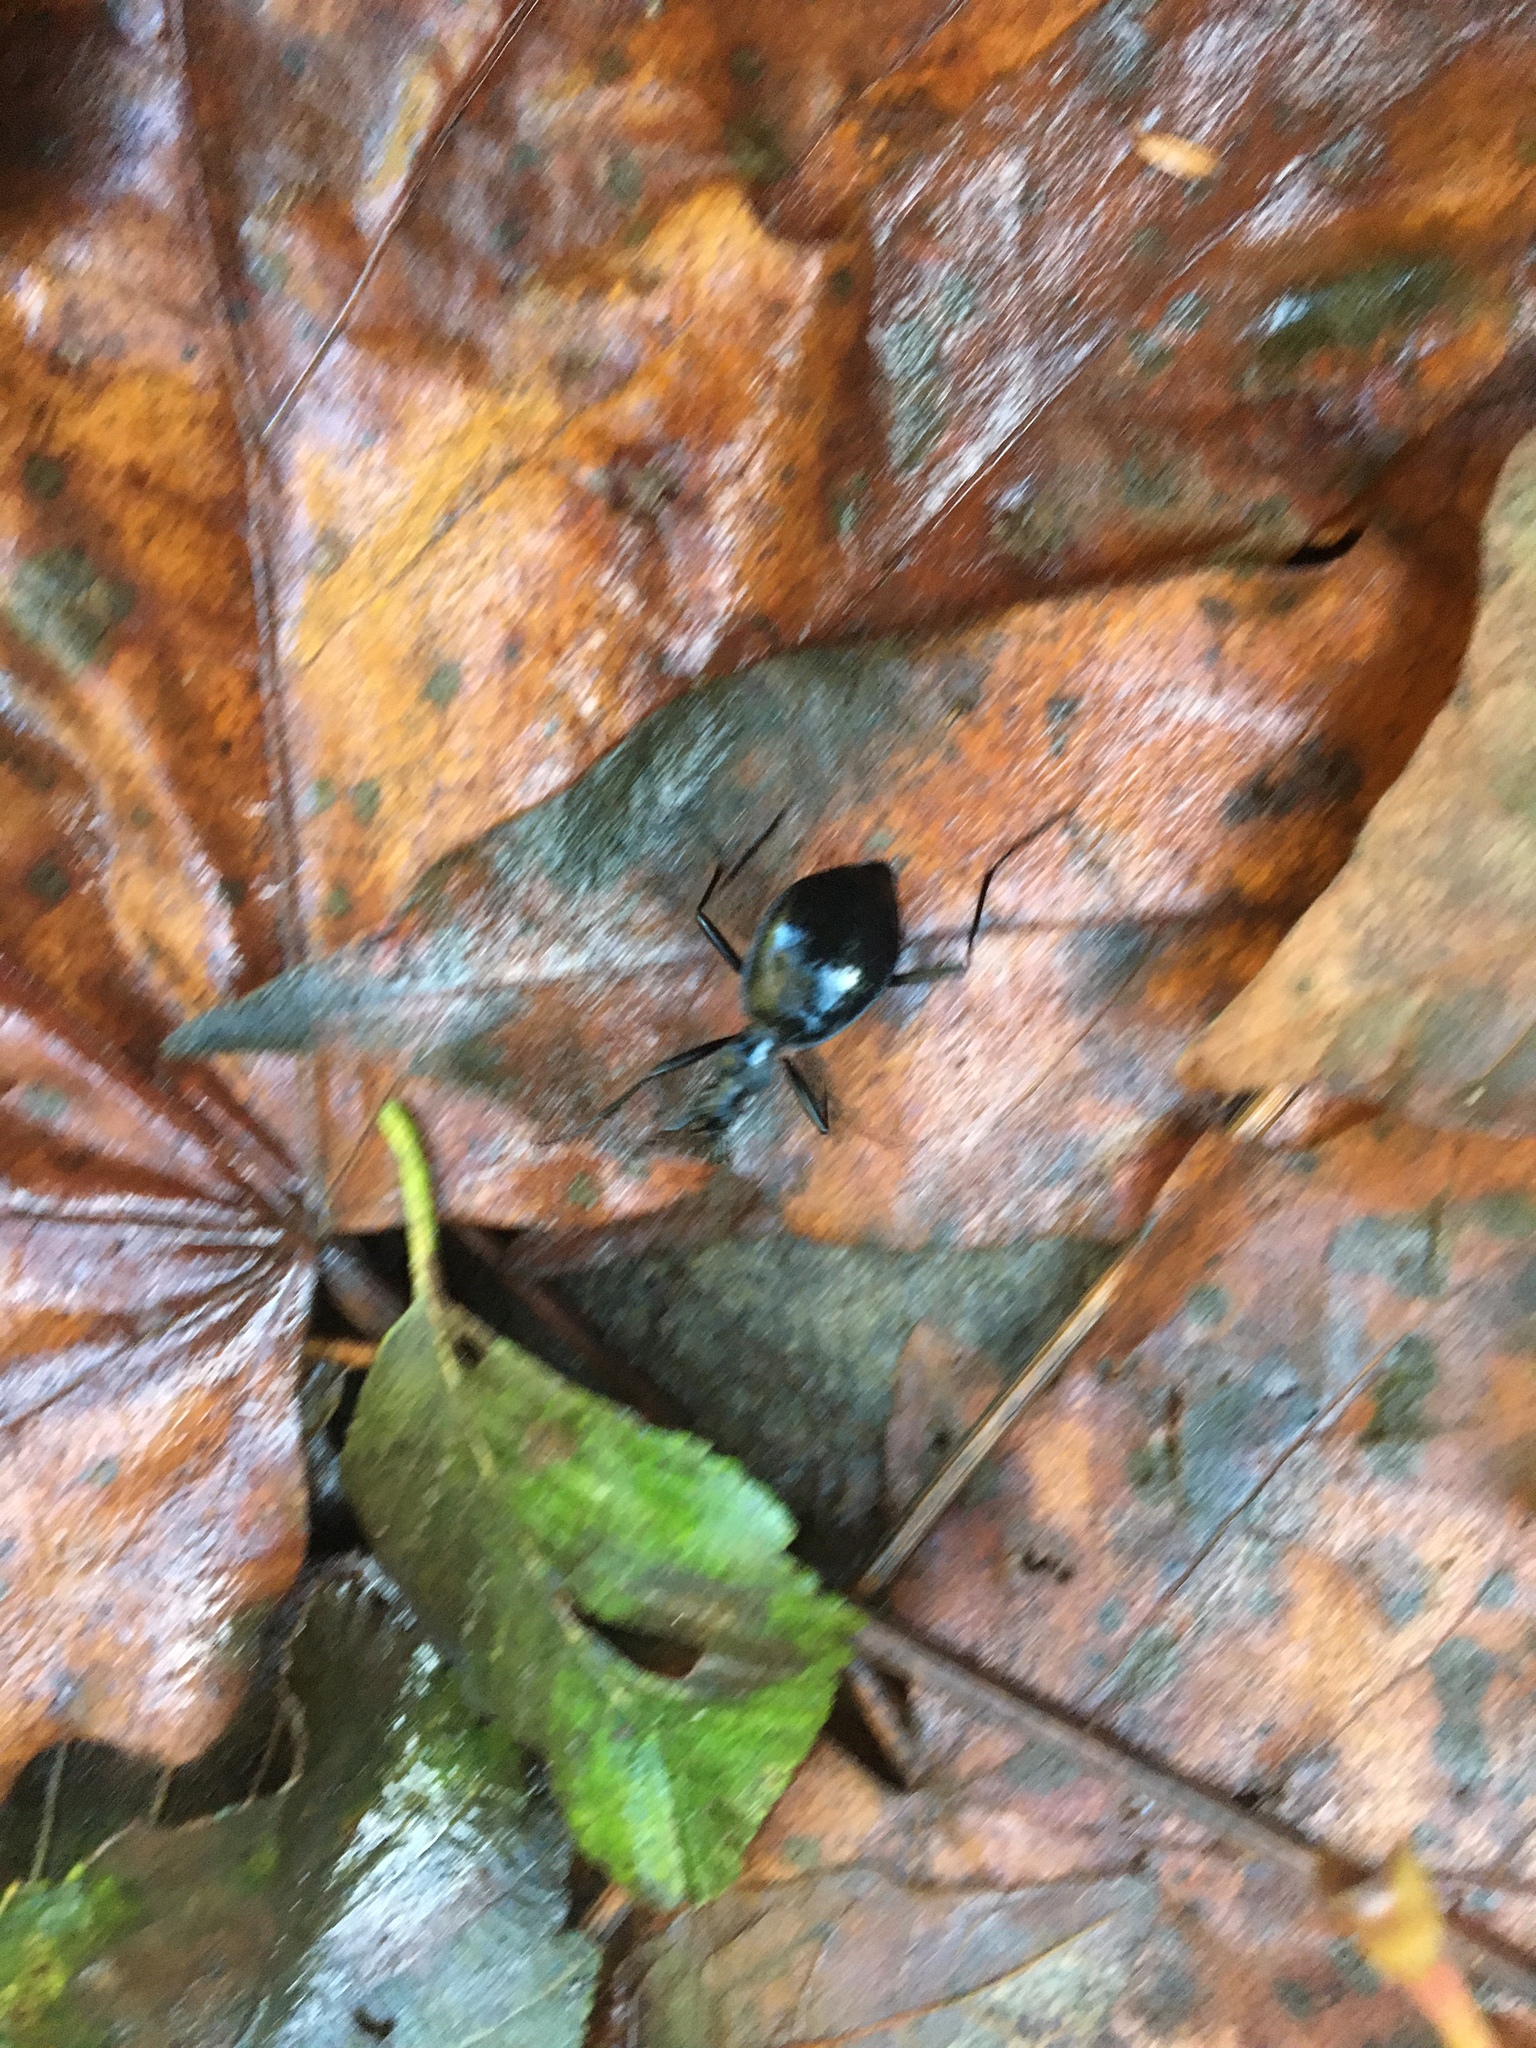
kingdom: Animalia
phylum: Arthropoda
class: Insecta
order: Coleoptera
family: Carabidae
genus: Scaphinotus
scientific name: Scaphinotus angusticollis
